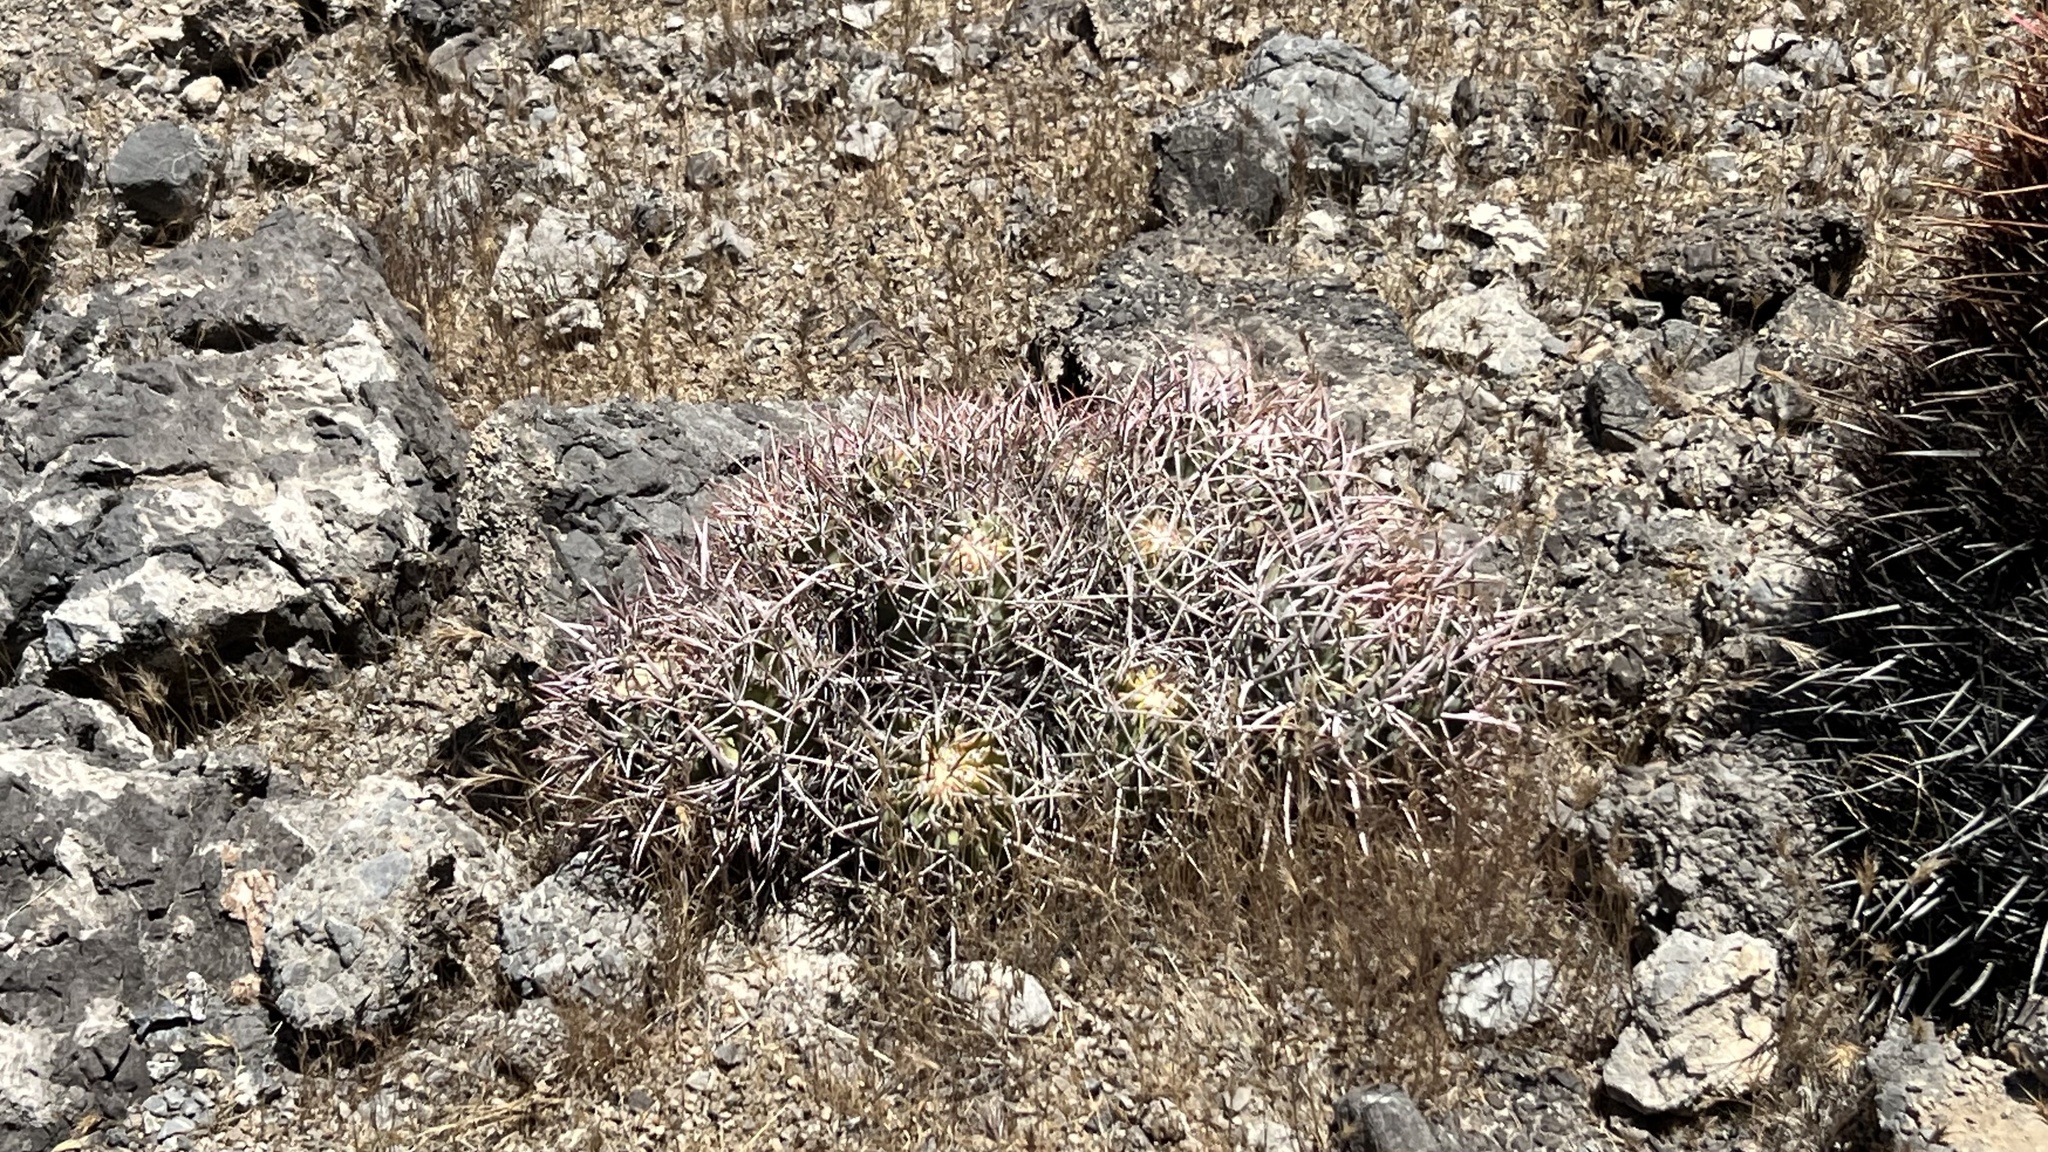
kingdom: Plantae
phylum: Tracheophyta
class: Magnoliopsida
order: Caryophyllales
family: Cactaceae
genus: Echinocactus
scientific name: Echinocactus polycephalus
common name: Cottontop cactus
